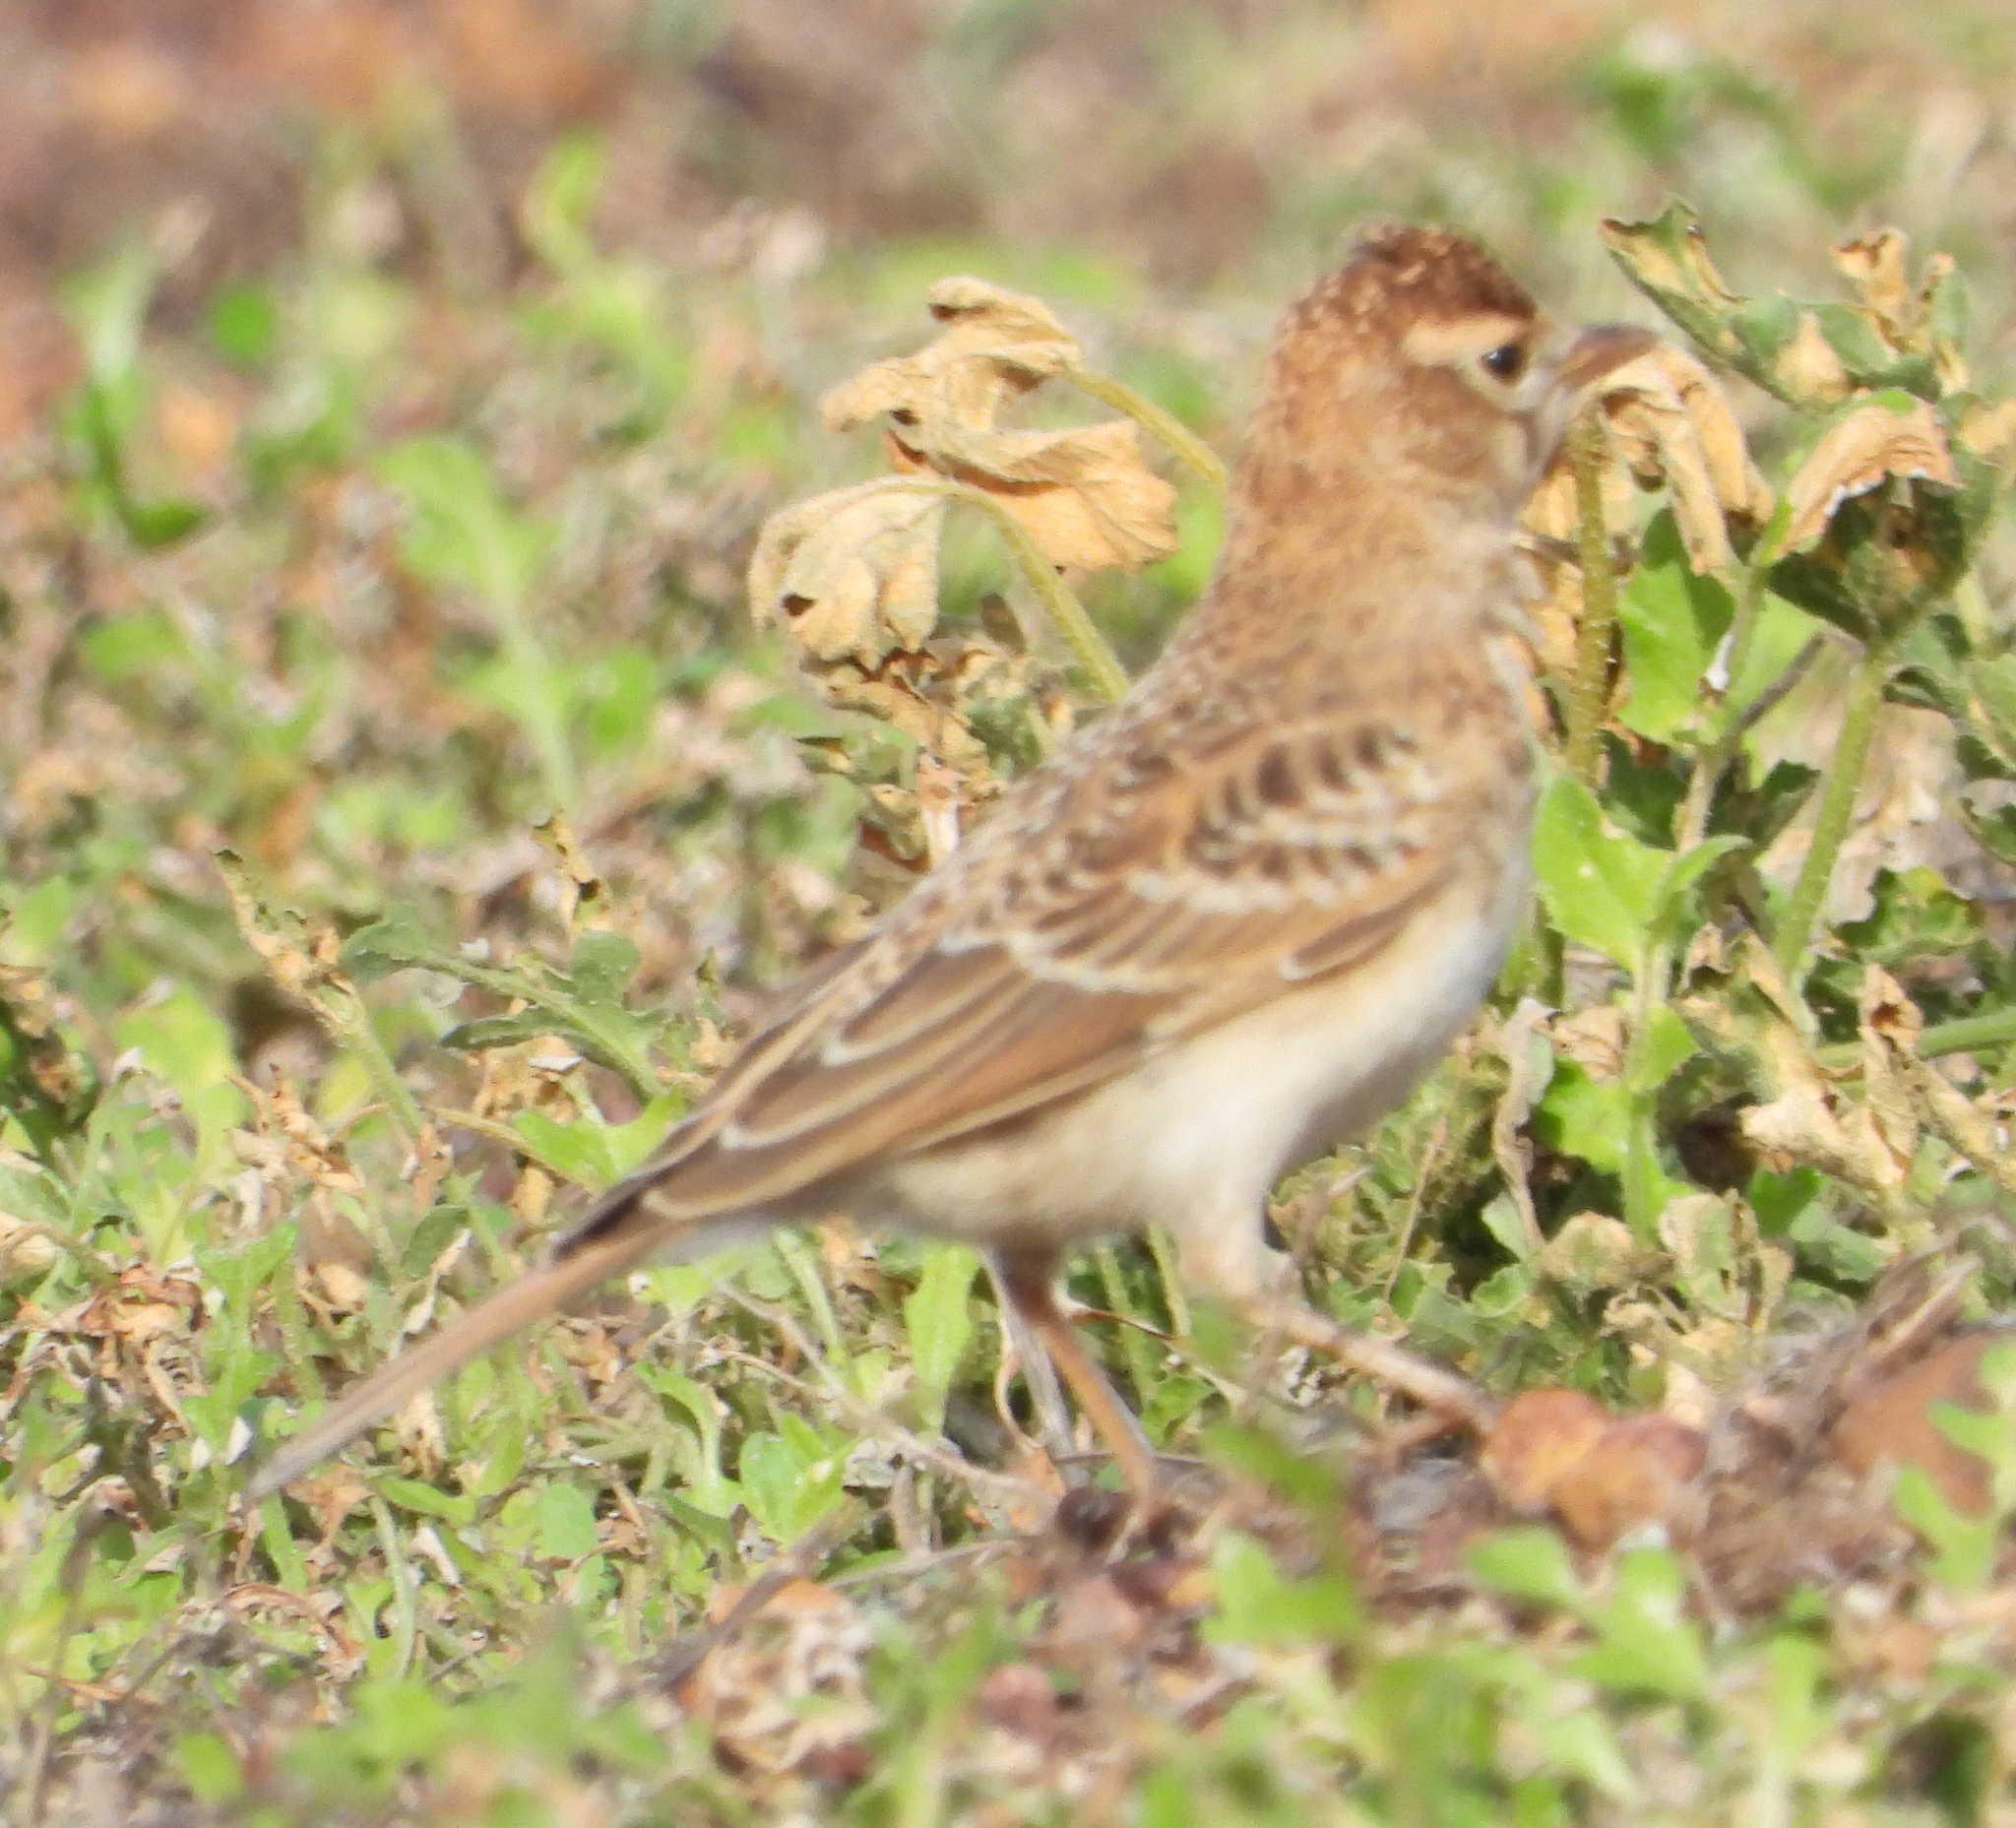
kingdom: Animalia
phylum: Chordata
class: Aves
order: Passeriformes
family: Alaudidae
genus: Calandrella
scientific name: Calandrella cinerea
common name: Red-capped lark
